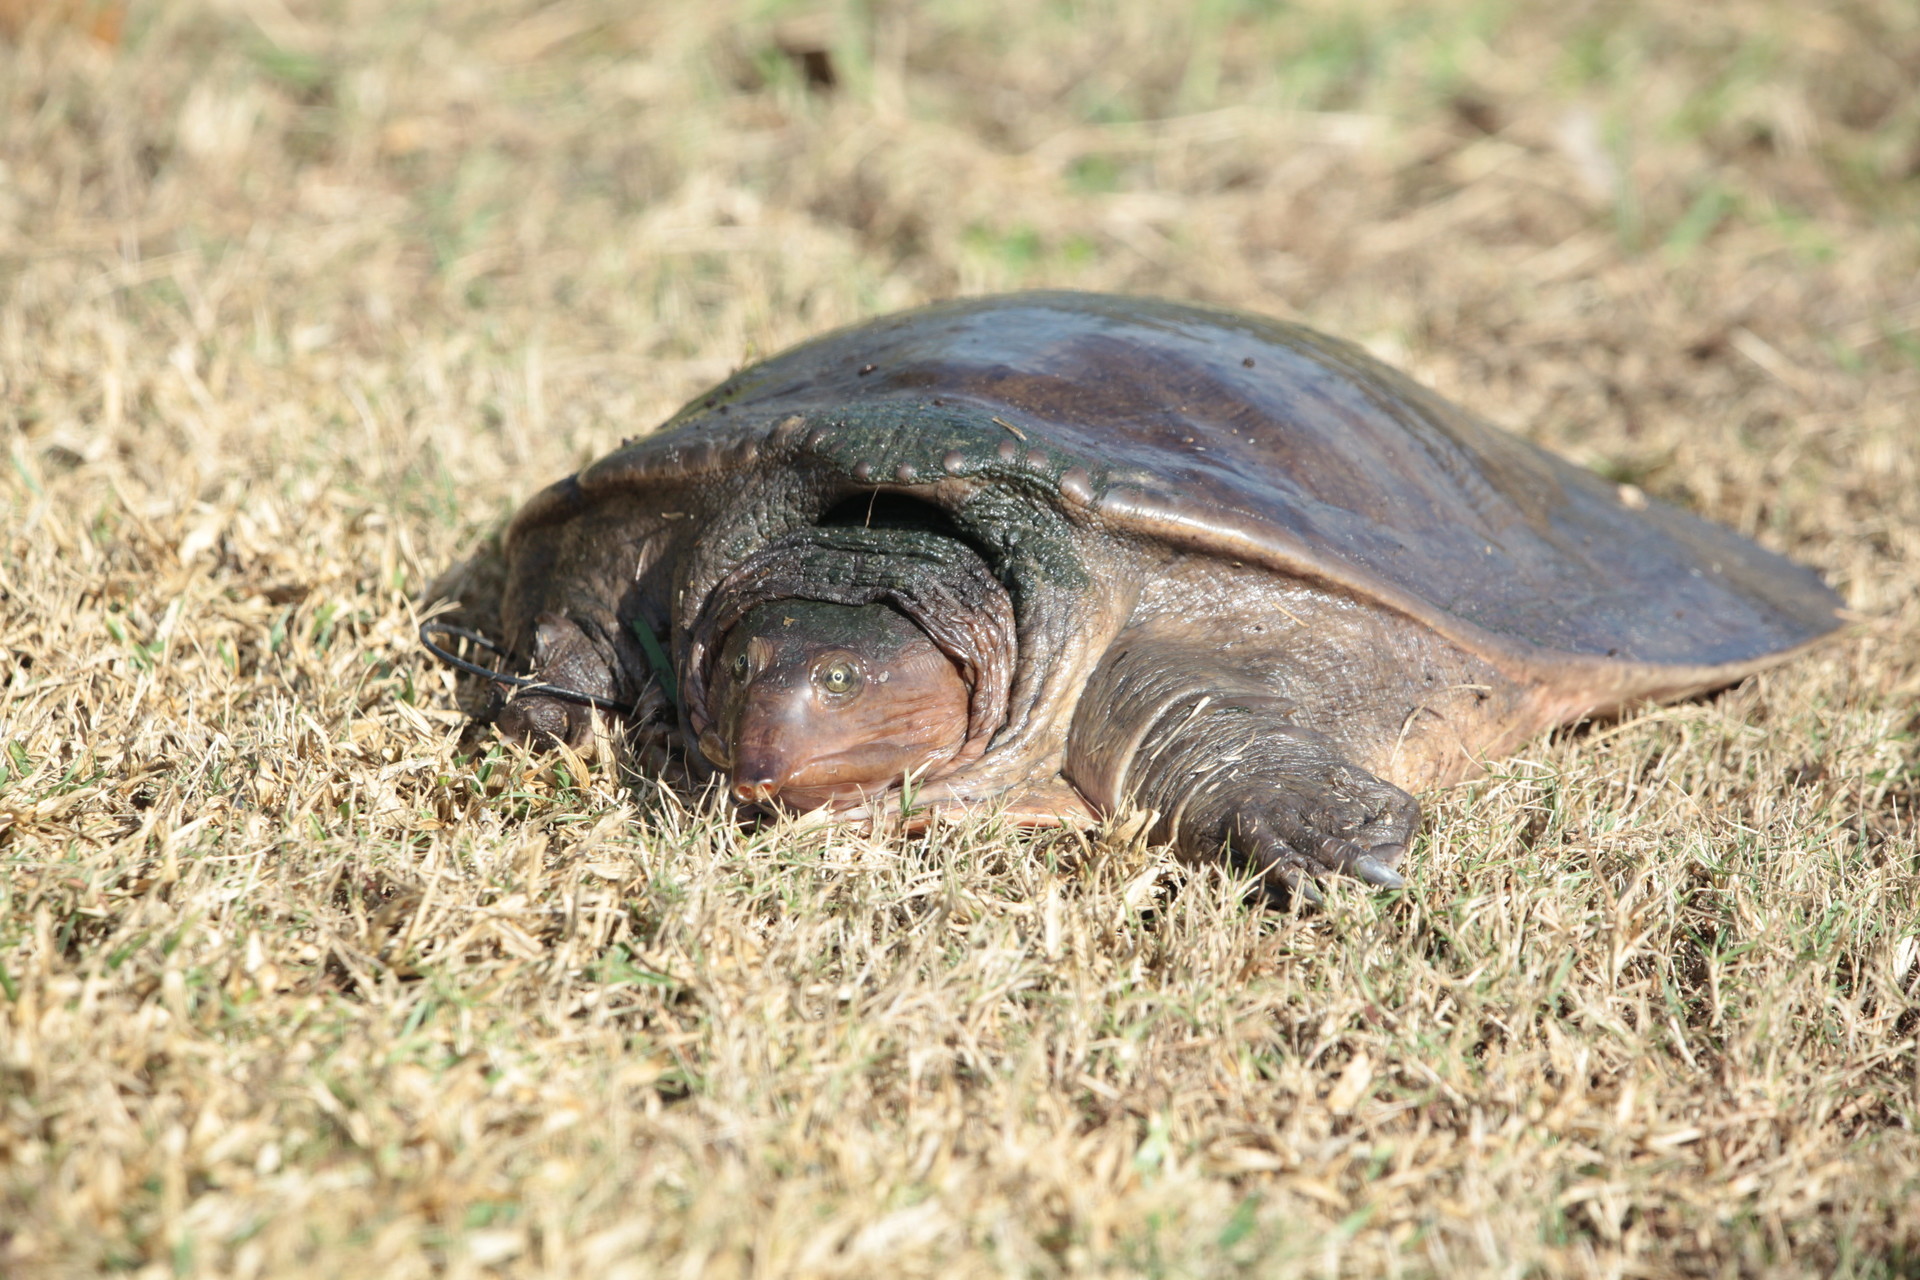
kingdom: Animalia
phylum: Chordata
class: Testudines
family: Trionychidae
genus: Apalone
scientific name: Apalone ferox
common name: Florida softshell turtle
